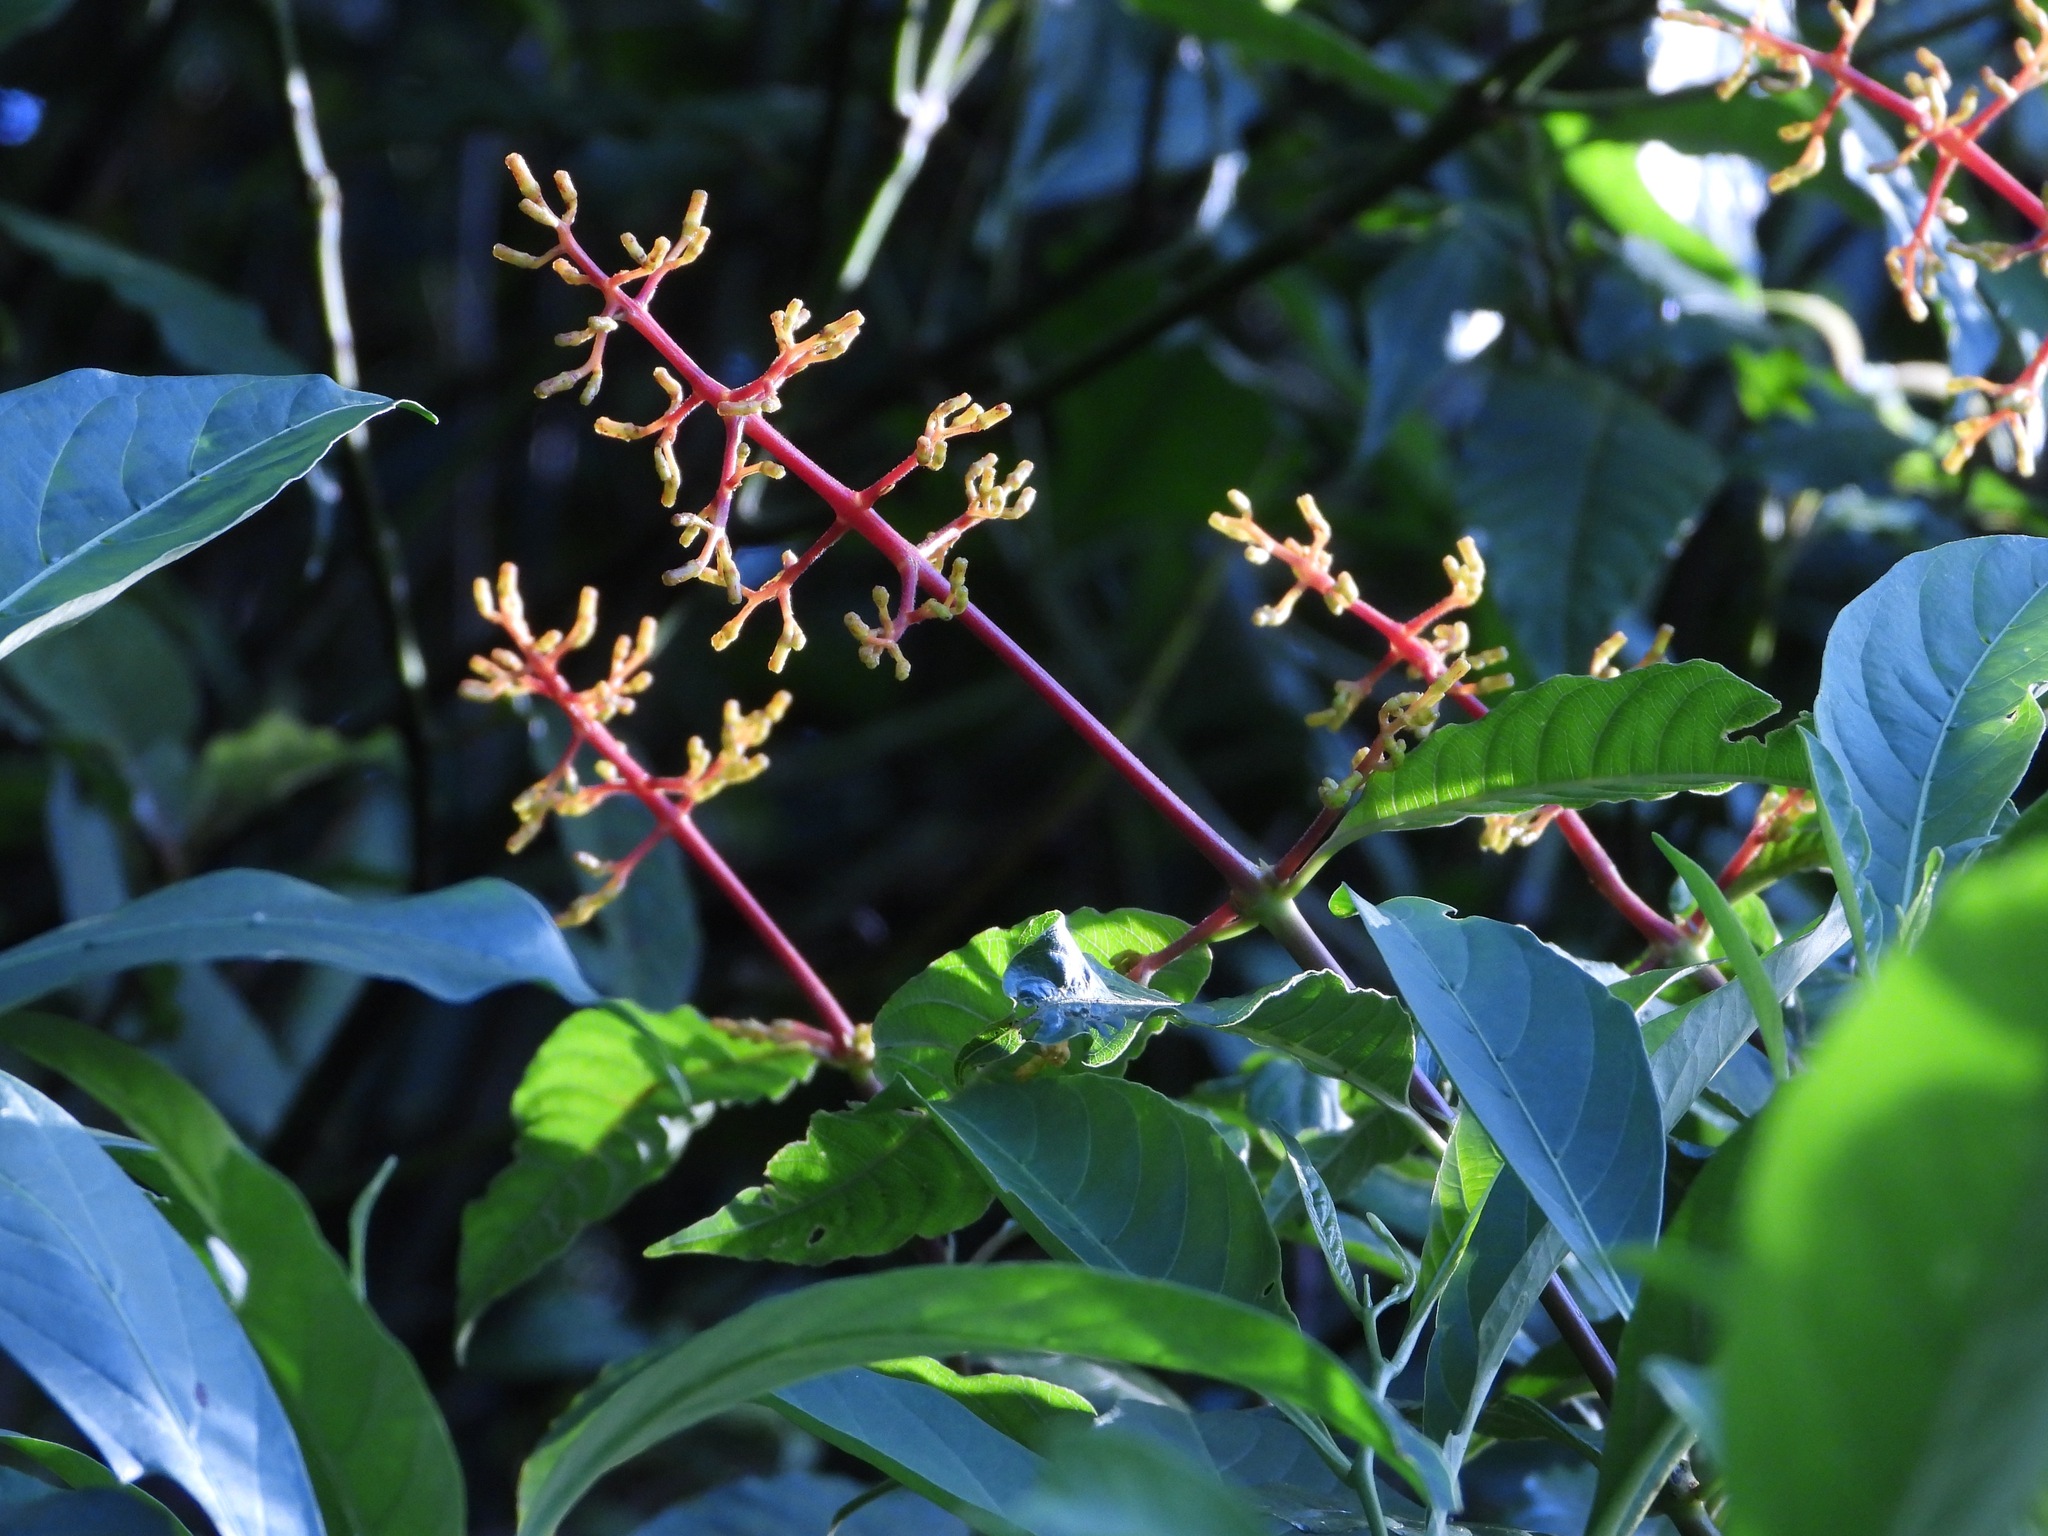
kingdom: Plantae
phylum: Tracheophyta
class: Magnoliopsida
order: Gentianales
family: Rubiaceae
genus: Palicourea
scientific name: Palicourea padifolia
